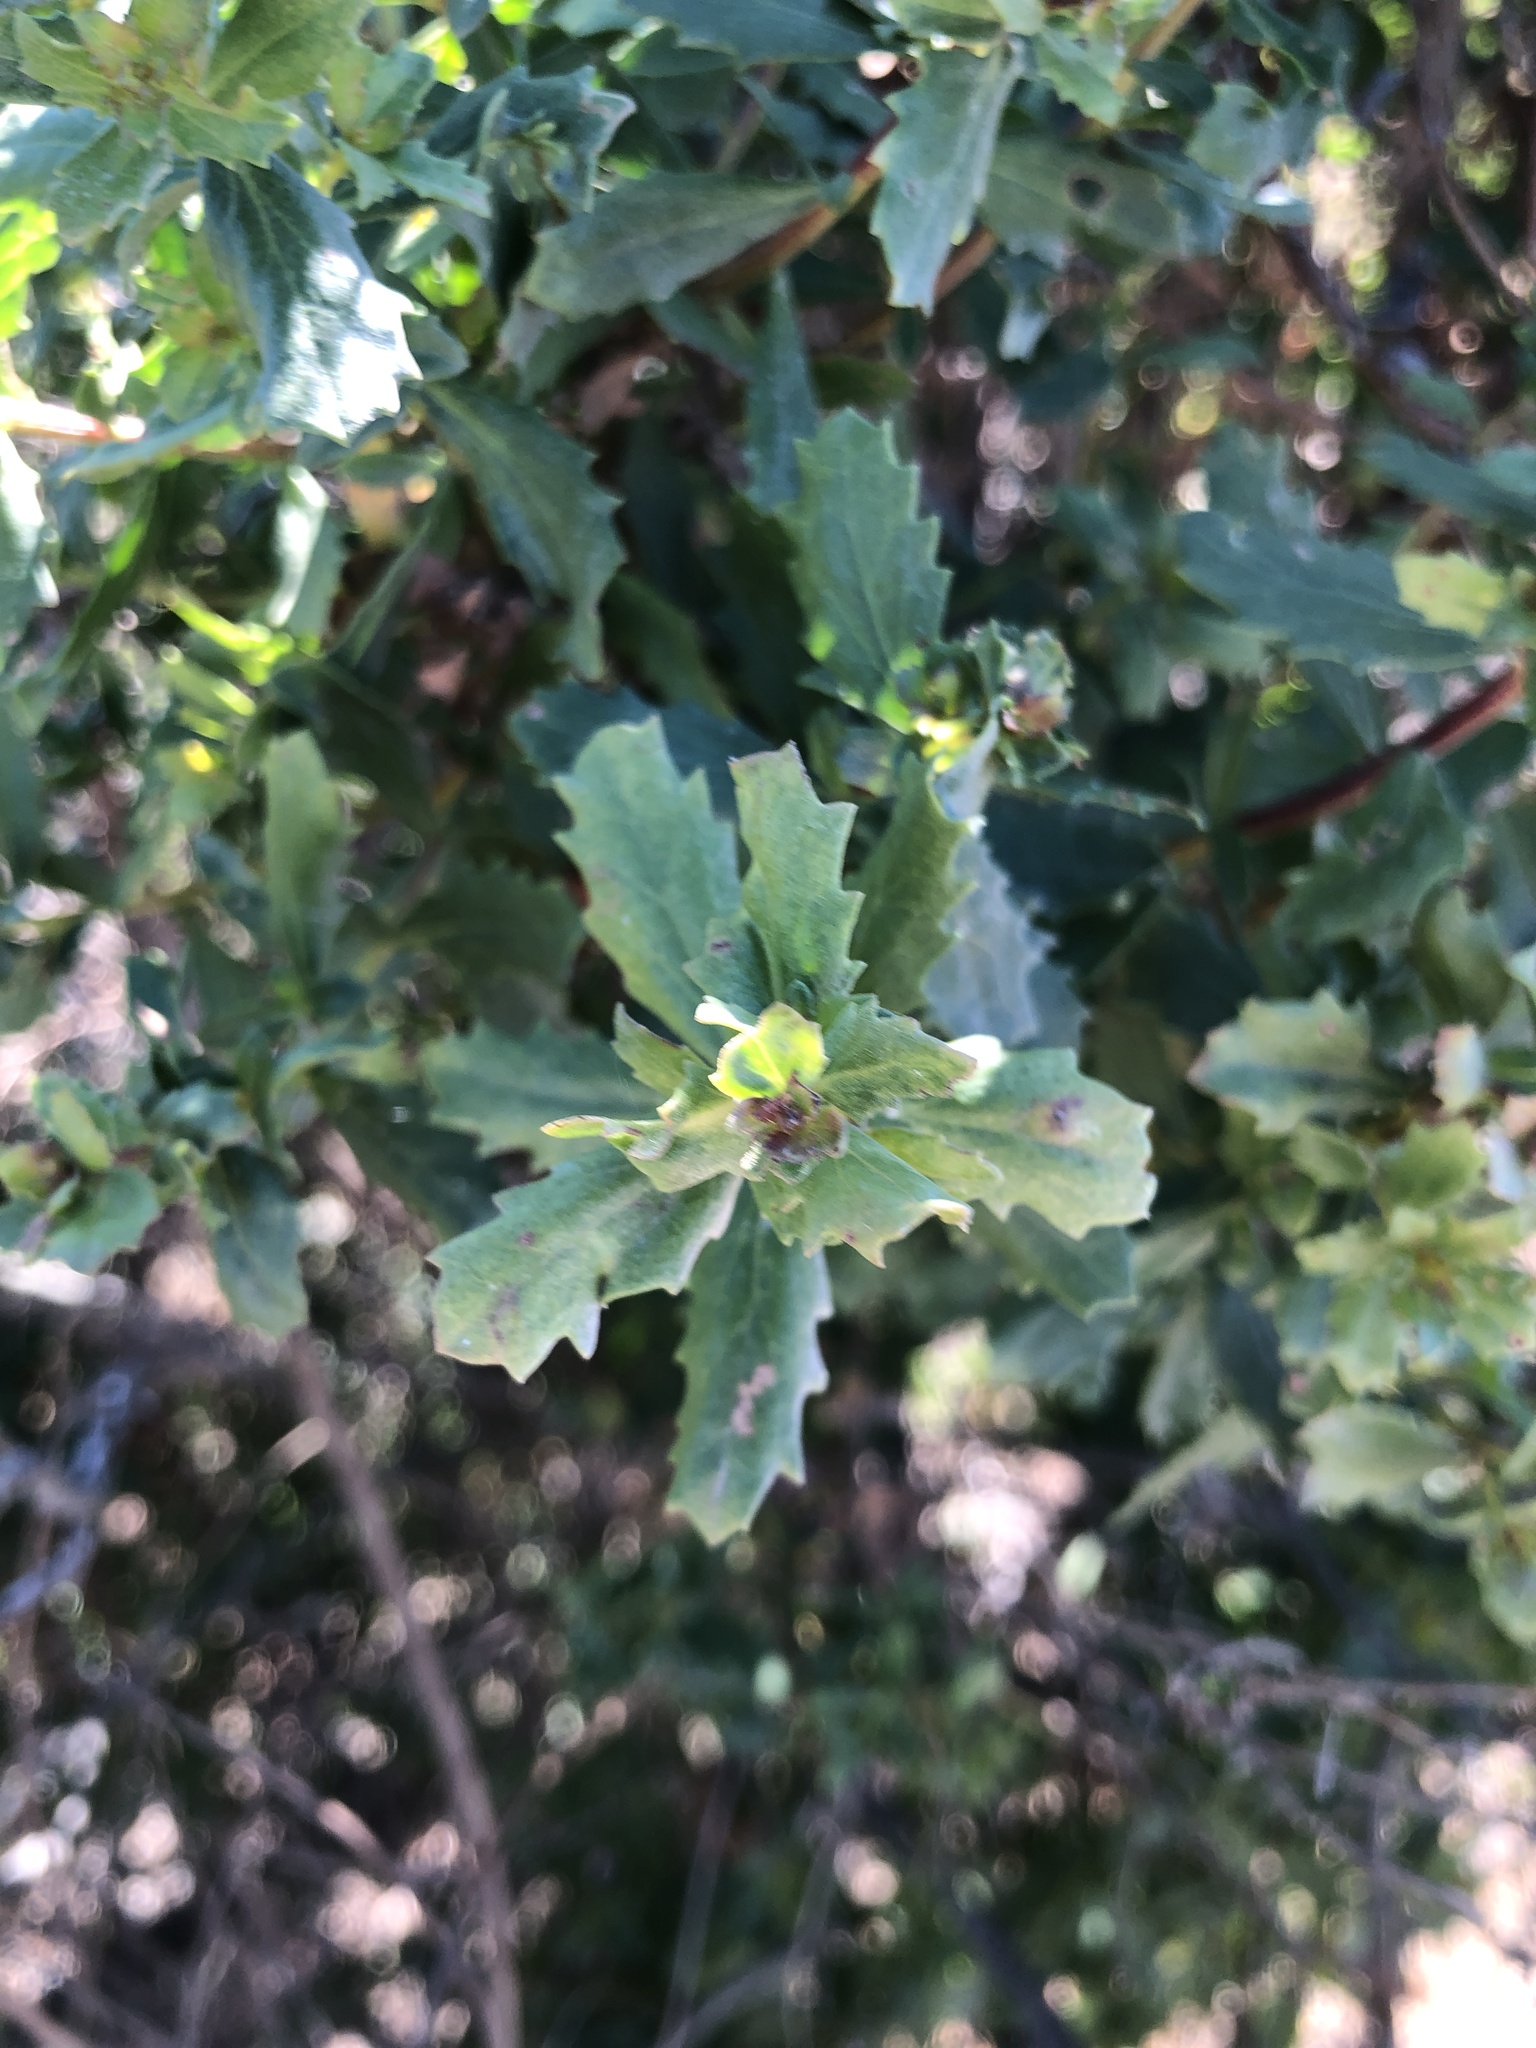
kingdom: Plantae
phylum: Tracheophyta
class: Magnoliopsida
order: Asterales
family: Asteraceae
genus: Baccharis
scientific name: Baccharis pilularis
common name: Coyotebrush
